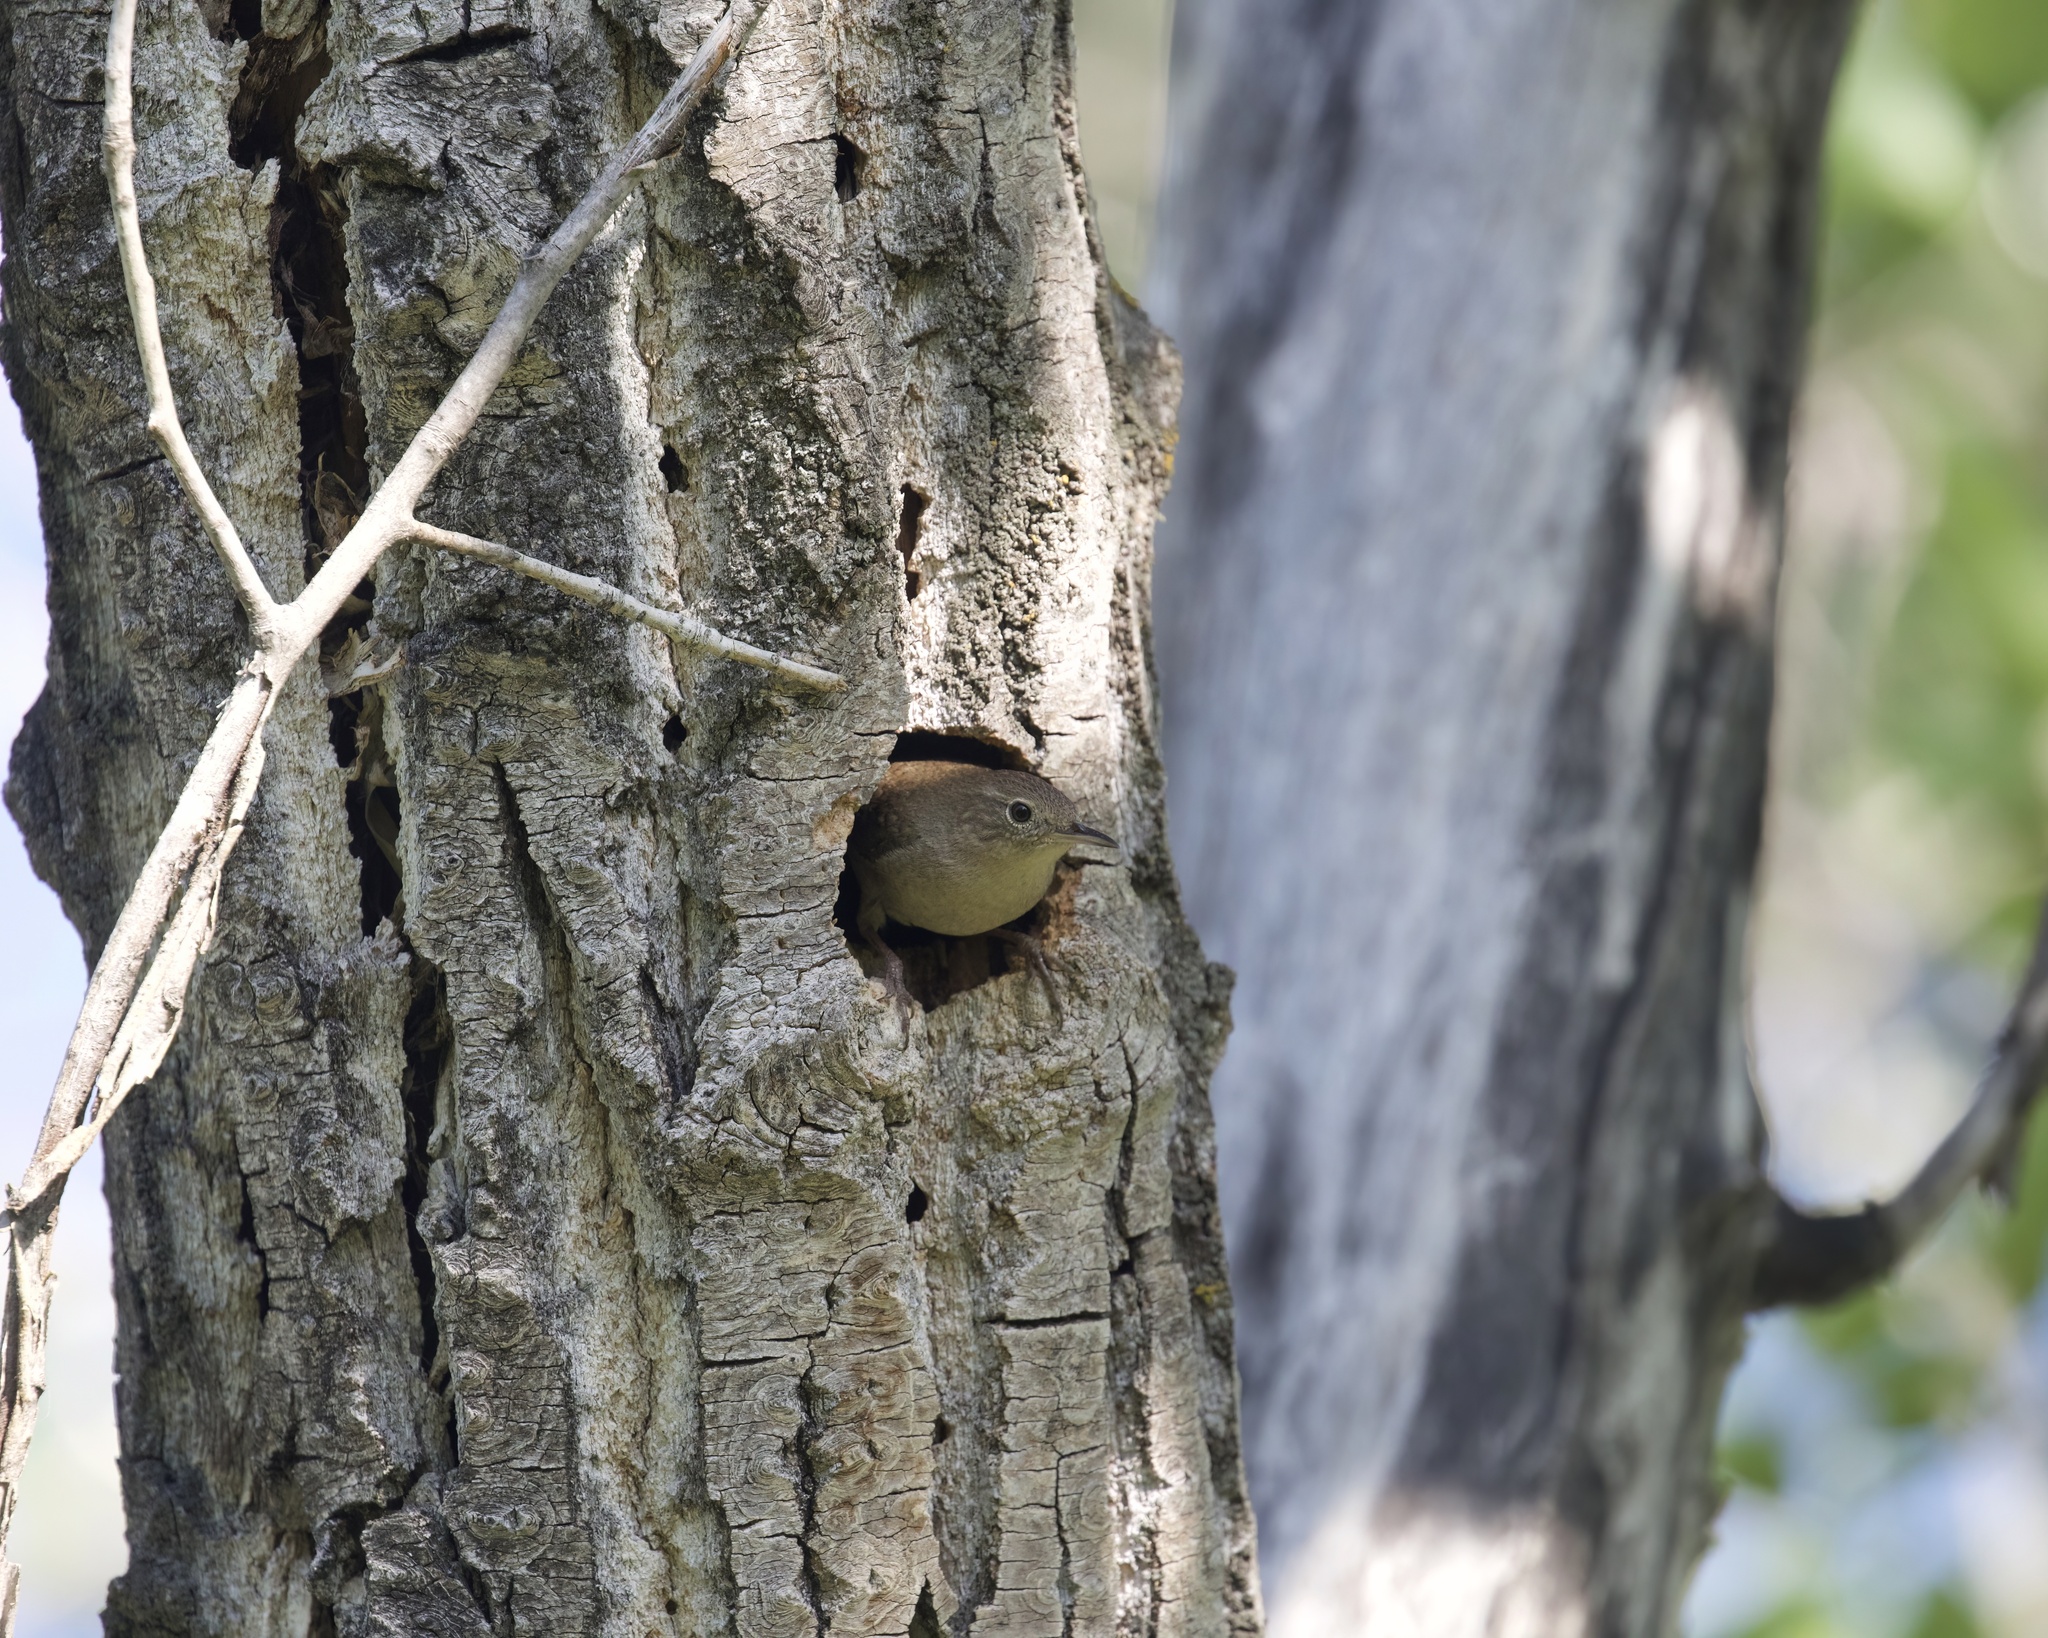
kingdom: Animalia
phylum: Chordata
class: Aves
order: Passeriformes
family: Troglodytidae
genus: Troglodytes
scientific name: Troglodytes aedon
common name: House wren
